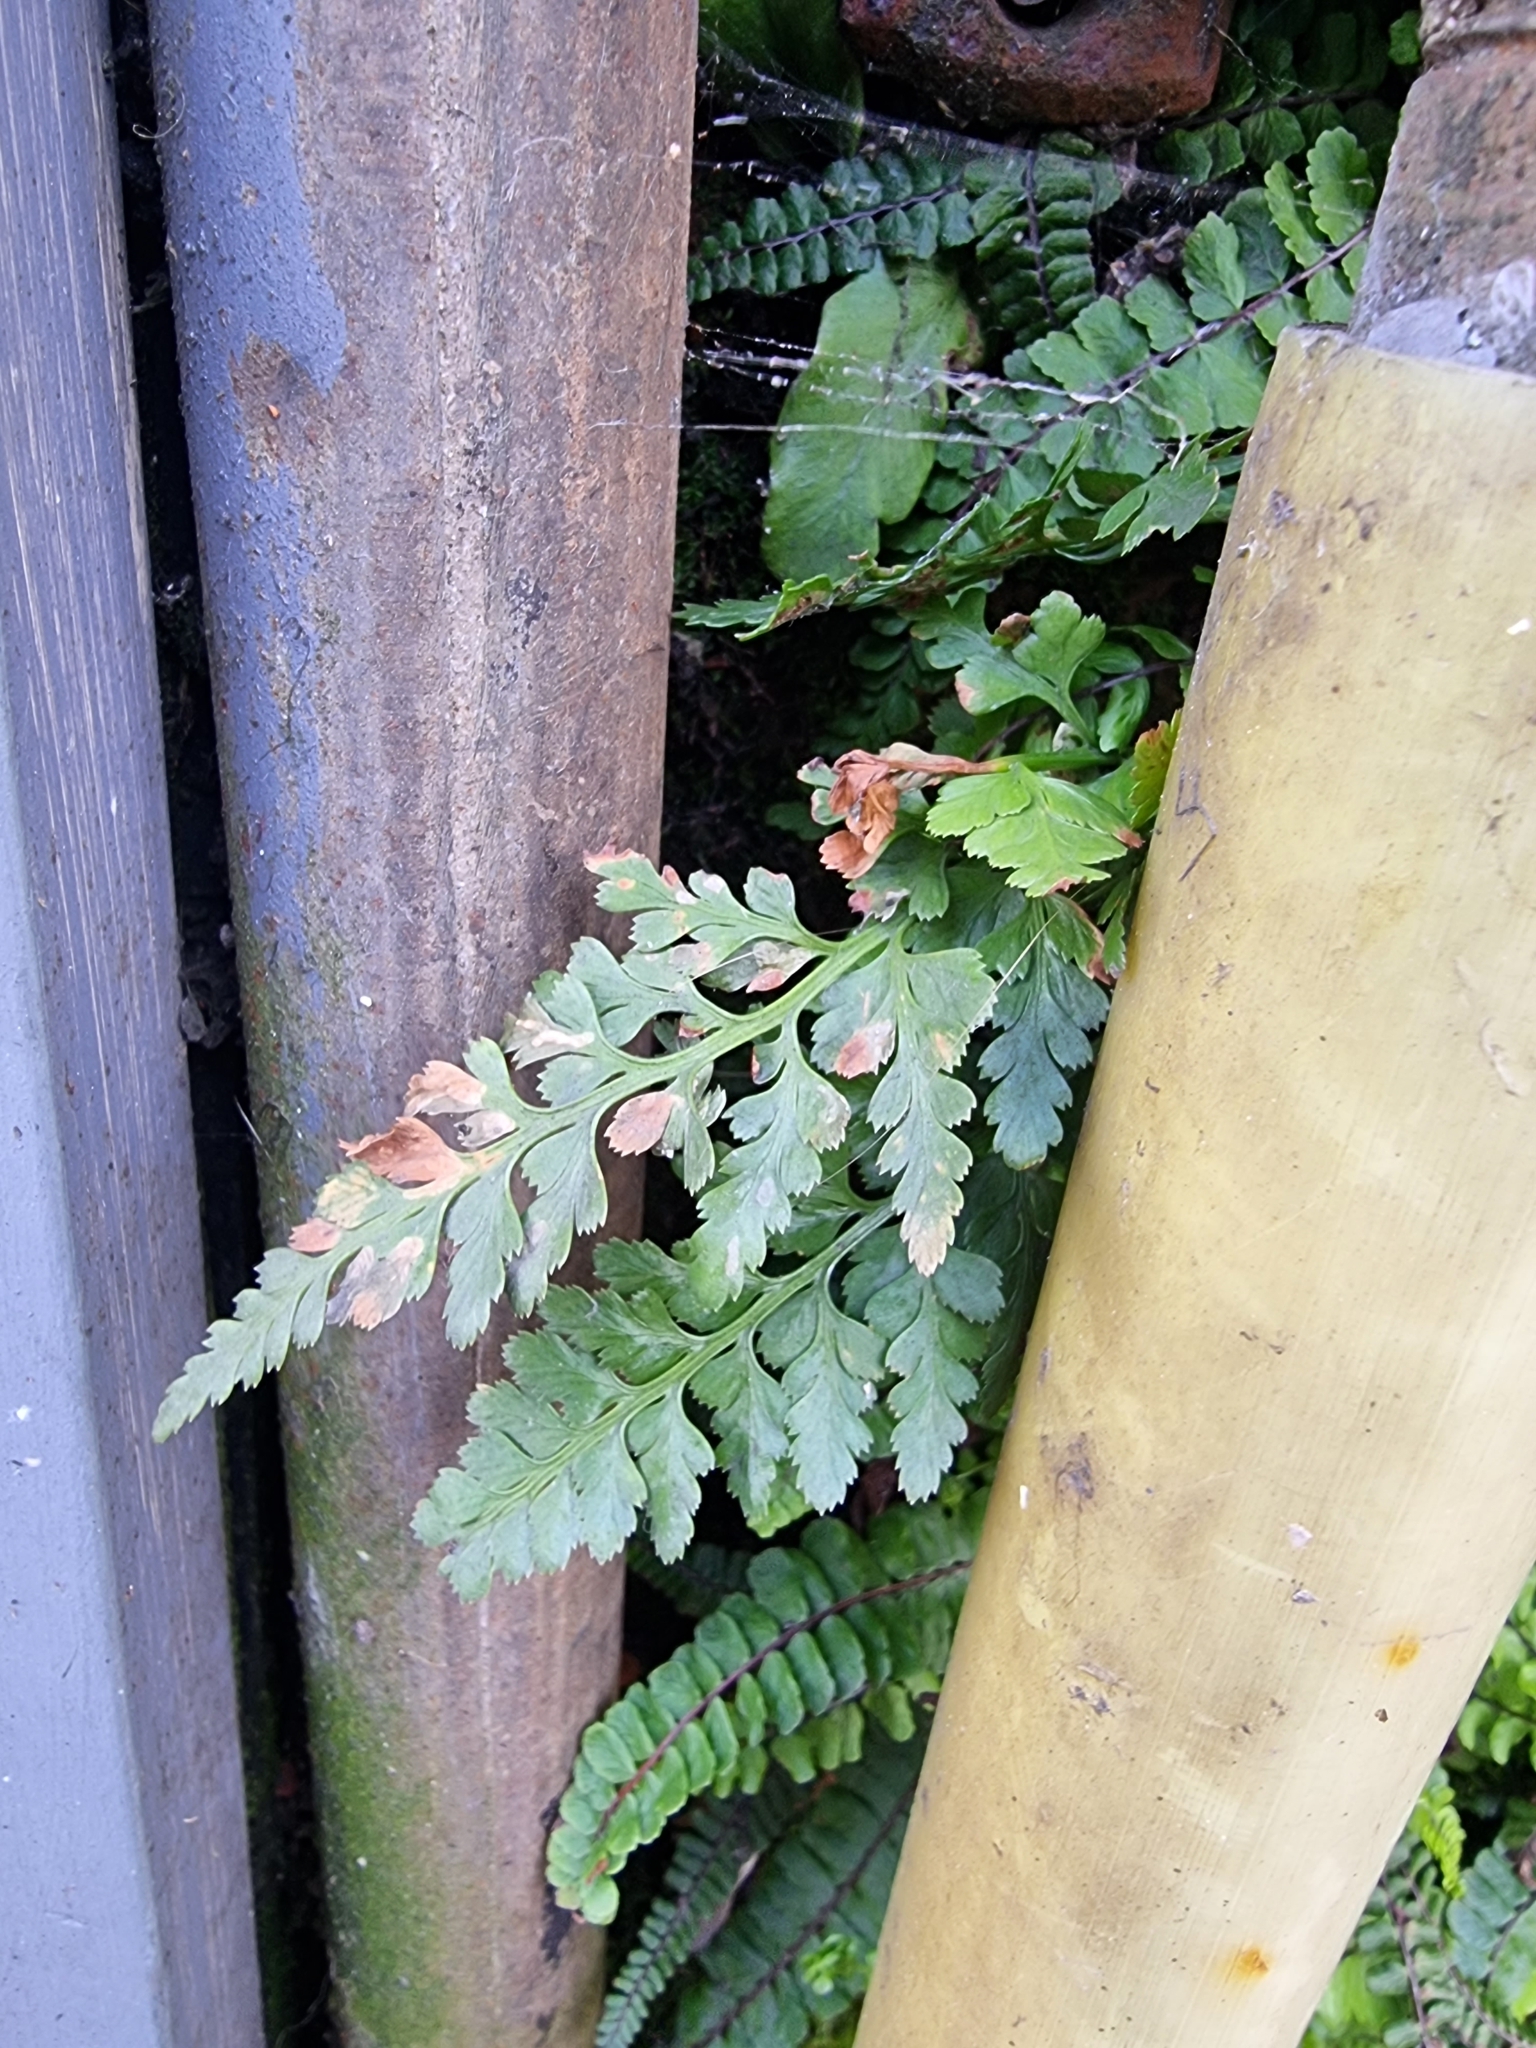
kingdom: Plantae
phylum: Tracheophyta
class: Polypodiopsida
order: Polypodiales
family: Aspleniaceae
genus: Asplenium
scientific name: Asplenium adiantum-nigrum
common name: Black spleenwort
